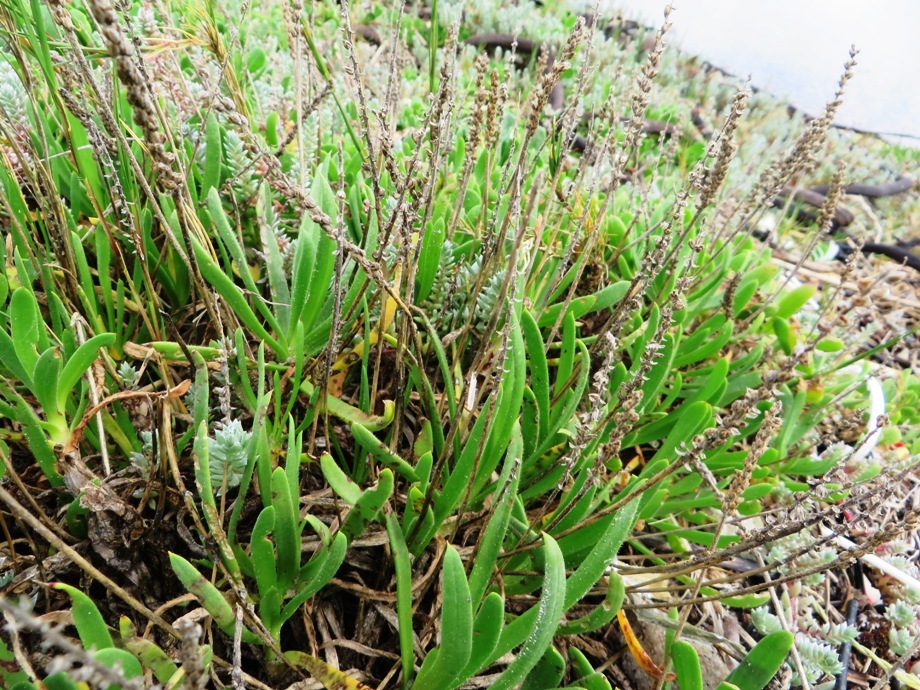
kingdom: Plantae
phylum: Tracheophyta
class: Magnoliopsida
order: Lamiales
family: Plantaginaceae
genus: Plantago
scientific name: Plantago carnosa
